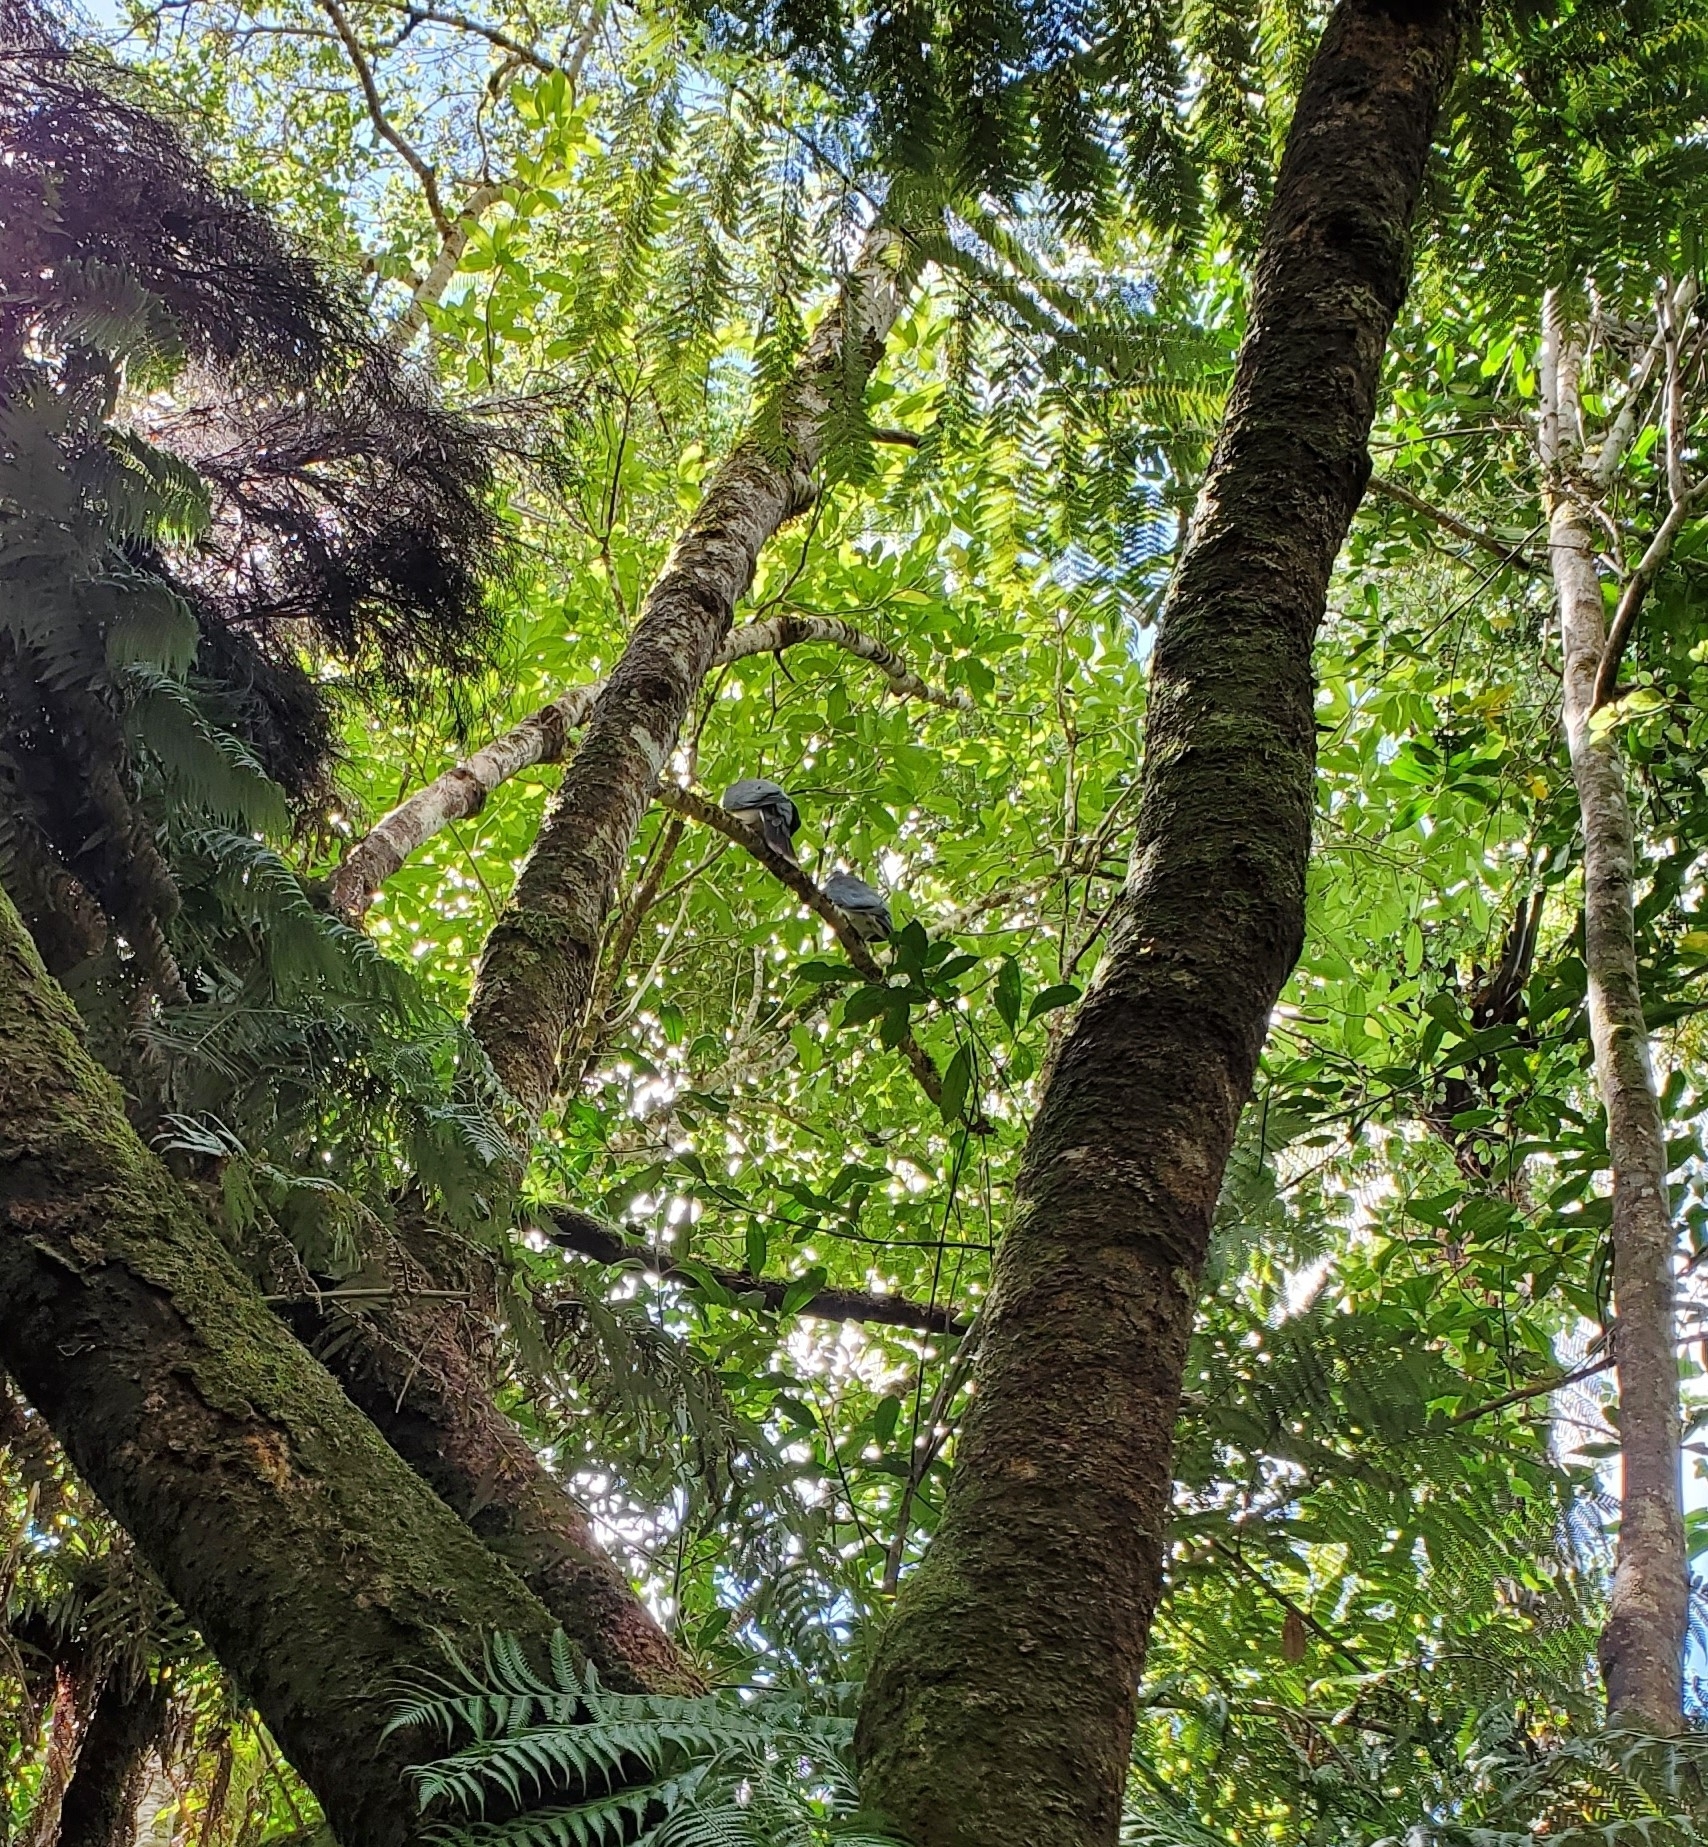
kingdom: Animalia
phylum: Chordata
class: Aves
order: Columbiformes
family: Columbidae
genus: Hemiphaga
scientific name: Hemiphaga novaeseelandiae
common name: New zealand pigeon
